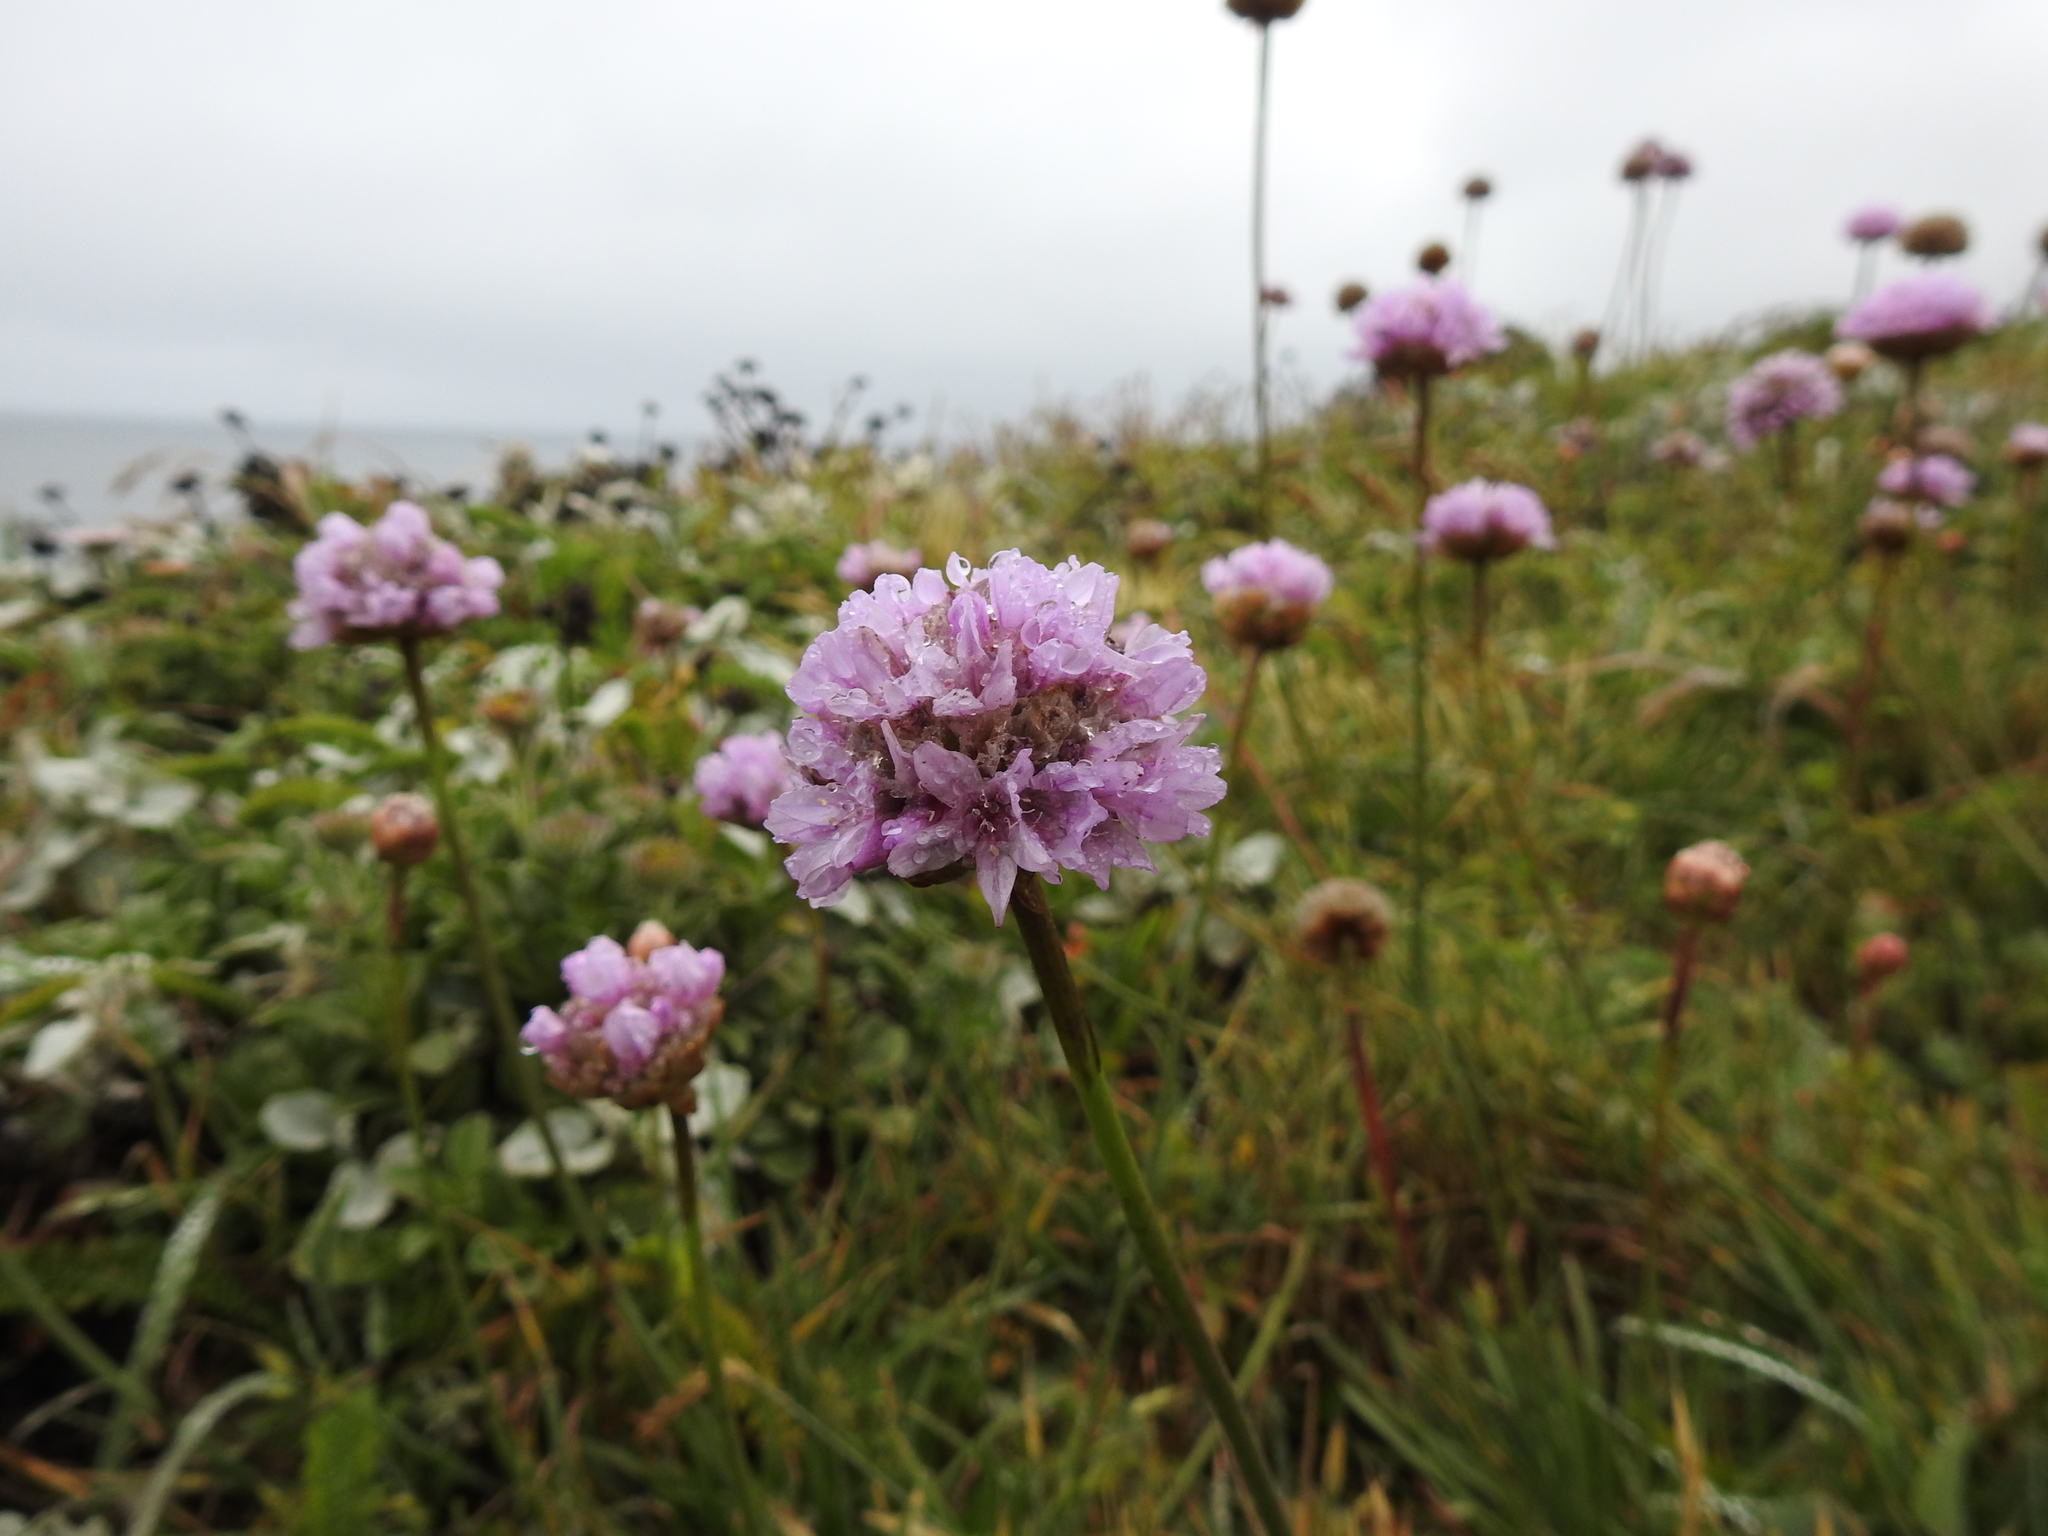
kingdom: Plantae
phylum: Tracheophyta
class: Magnoliopsida
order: Caryophyllales
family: Plumbaginaceae
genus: Armeria
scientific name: Armeria maritima
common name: Thrift
